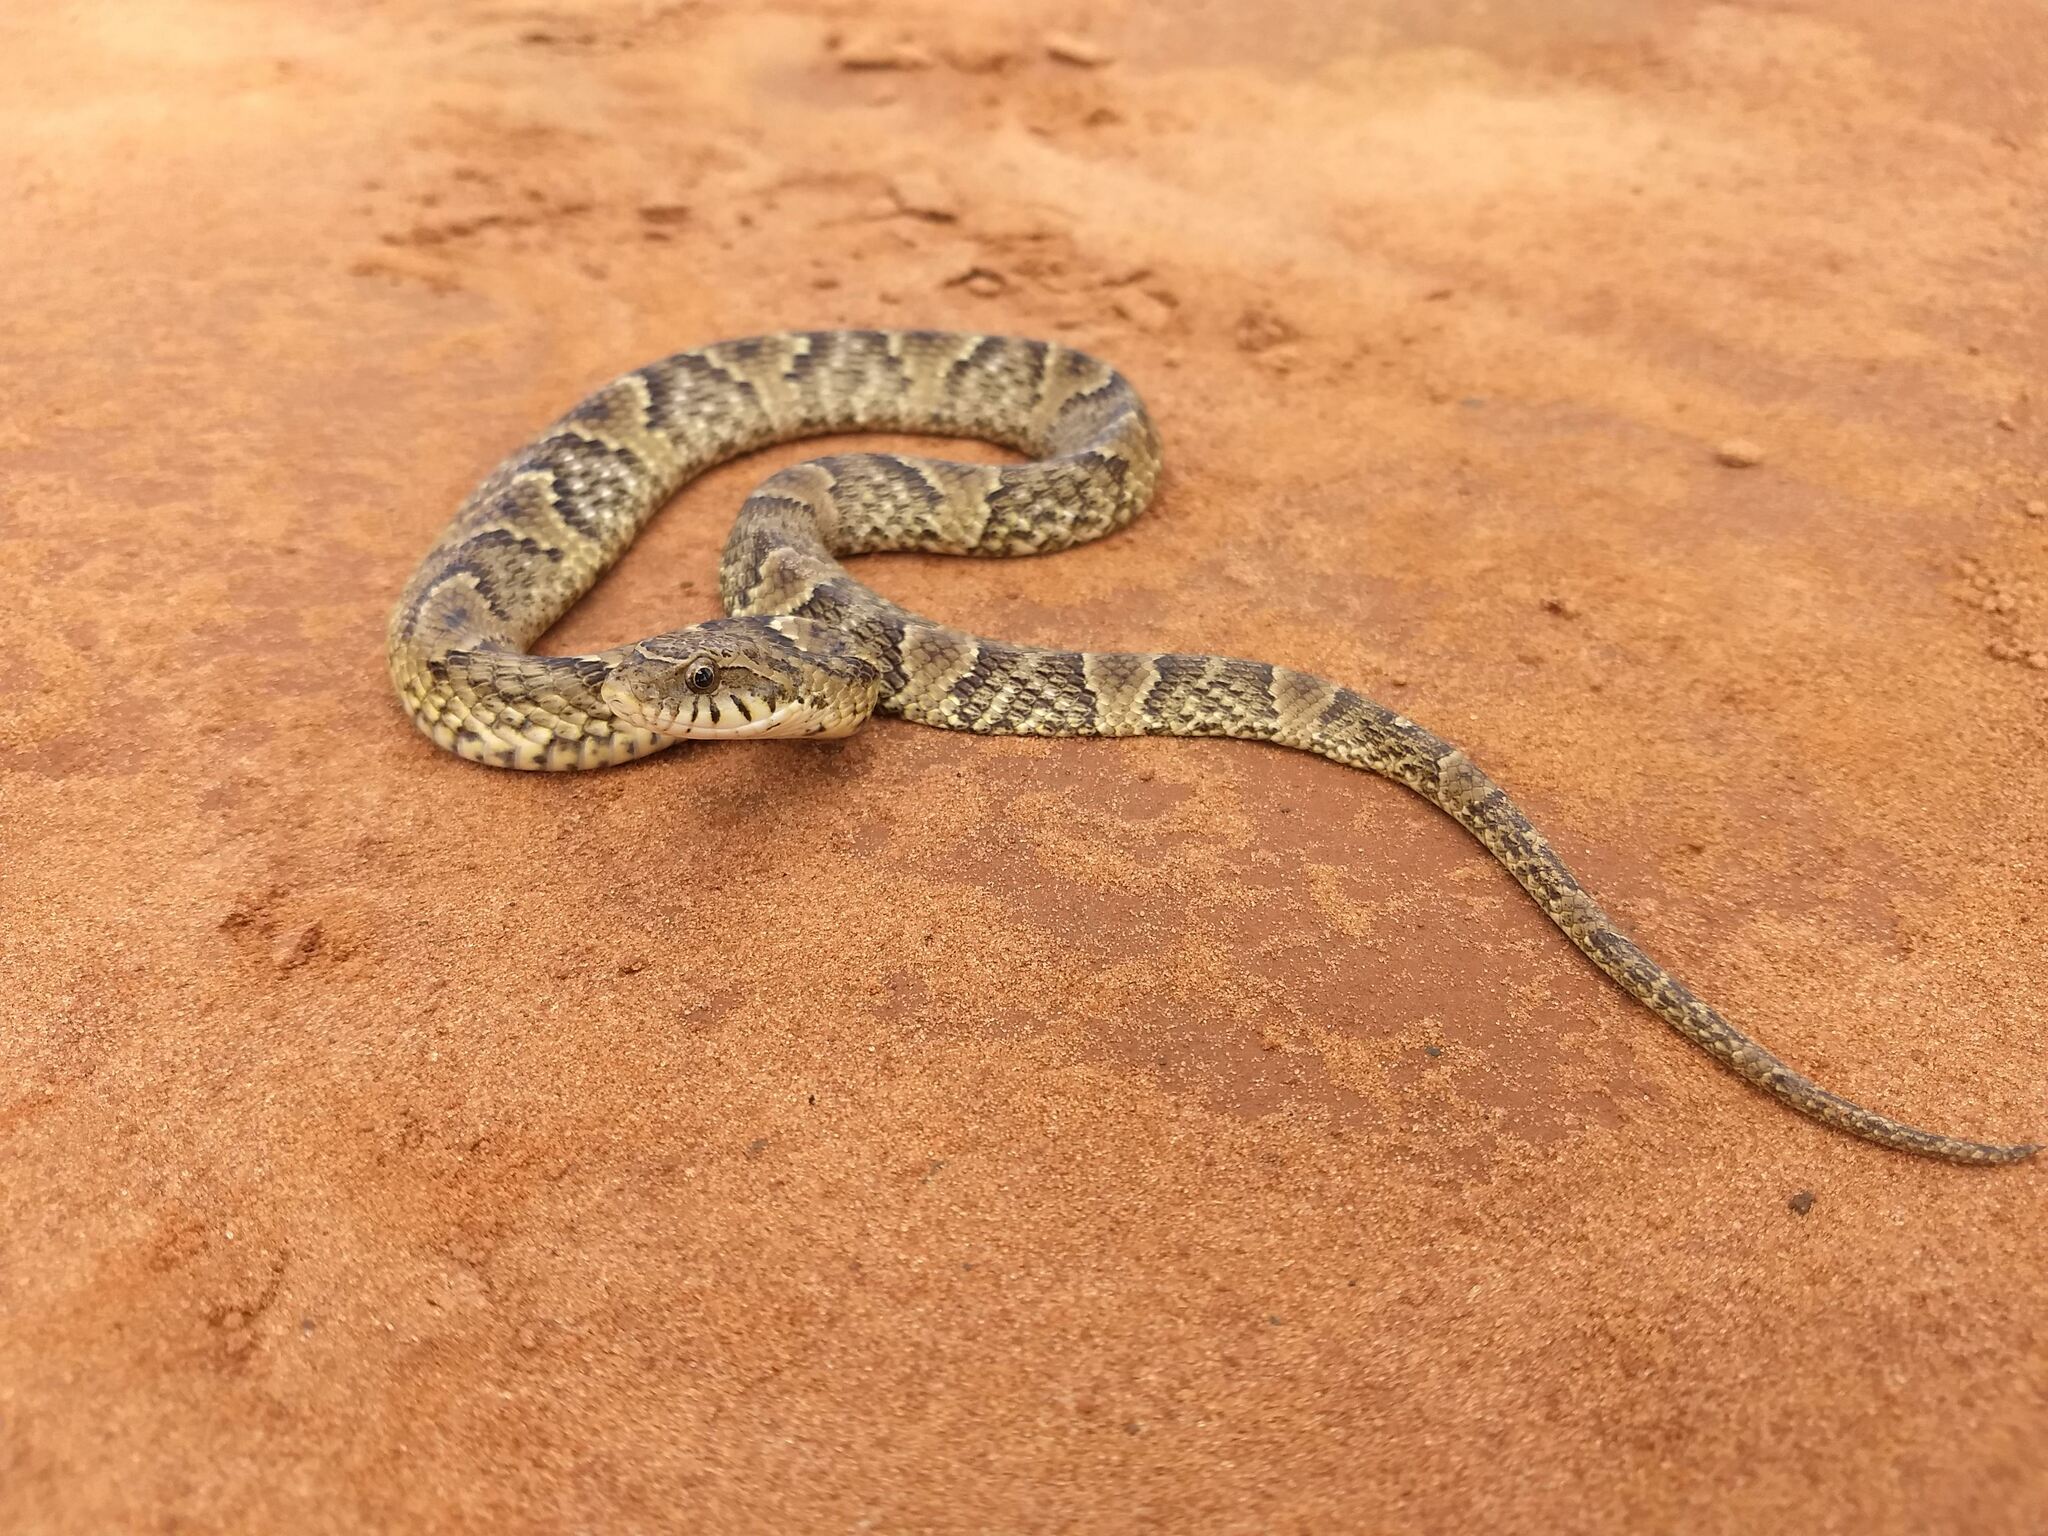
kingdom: Animalia
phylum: Chordata
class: Squamata
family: Colubridae
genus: Xenodon
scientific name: Xenodon merremii
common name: Wagler's snake
